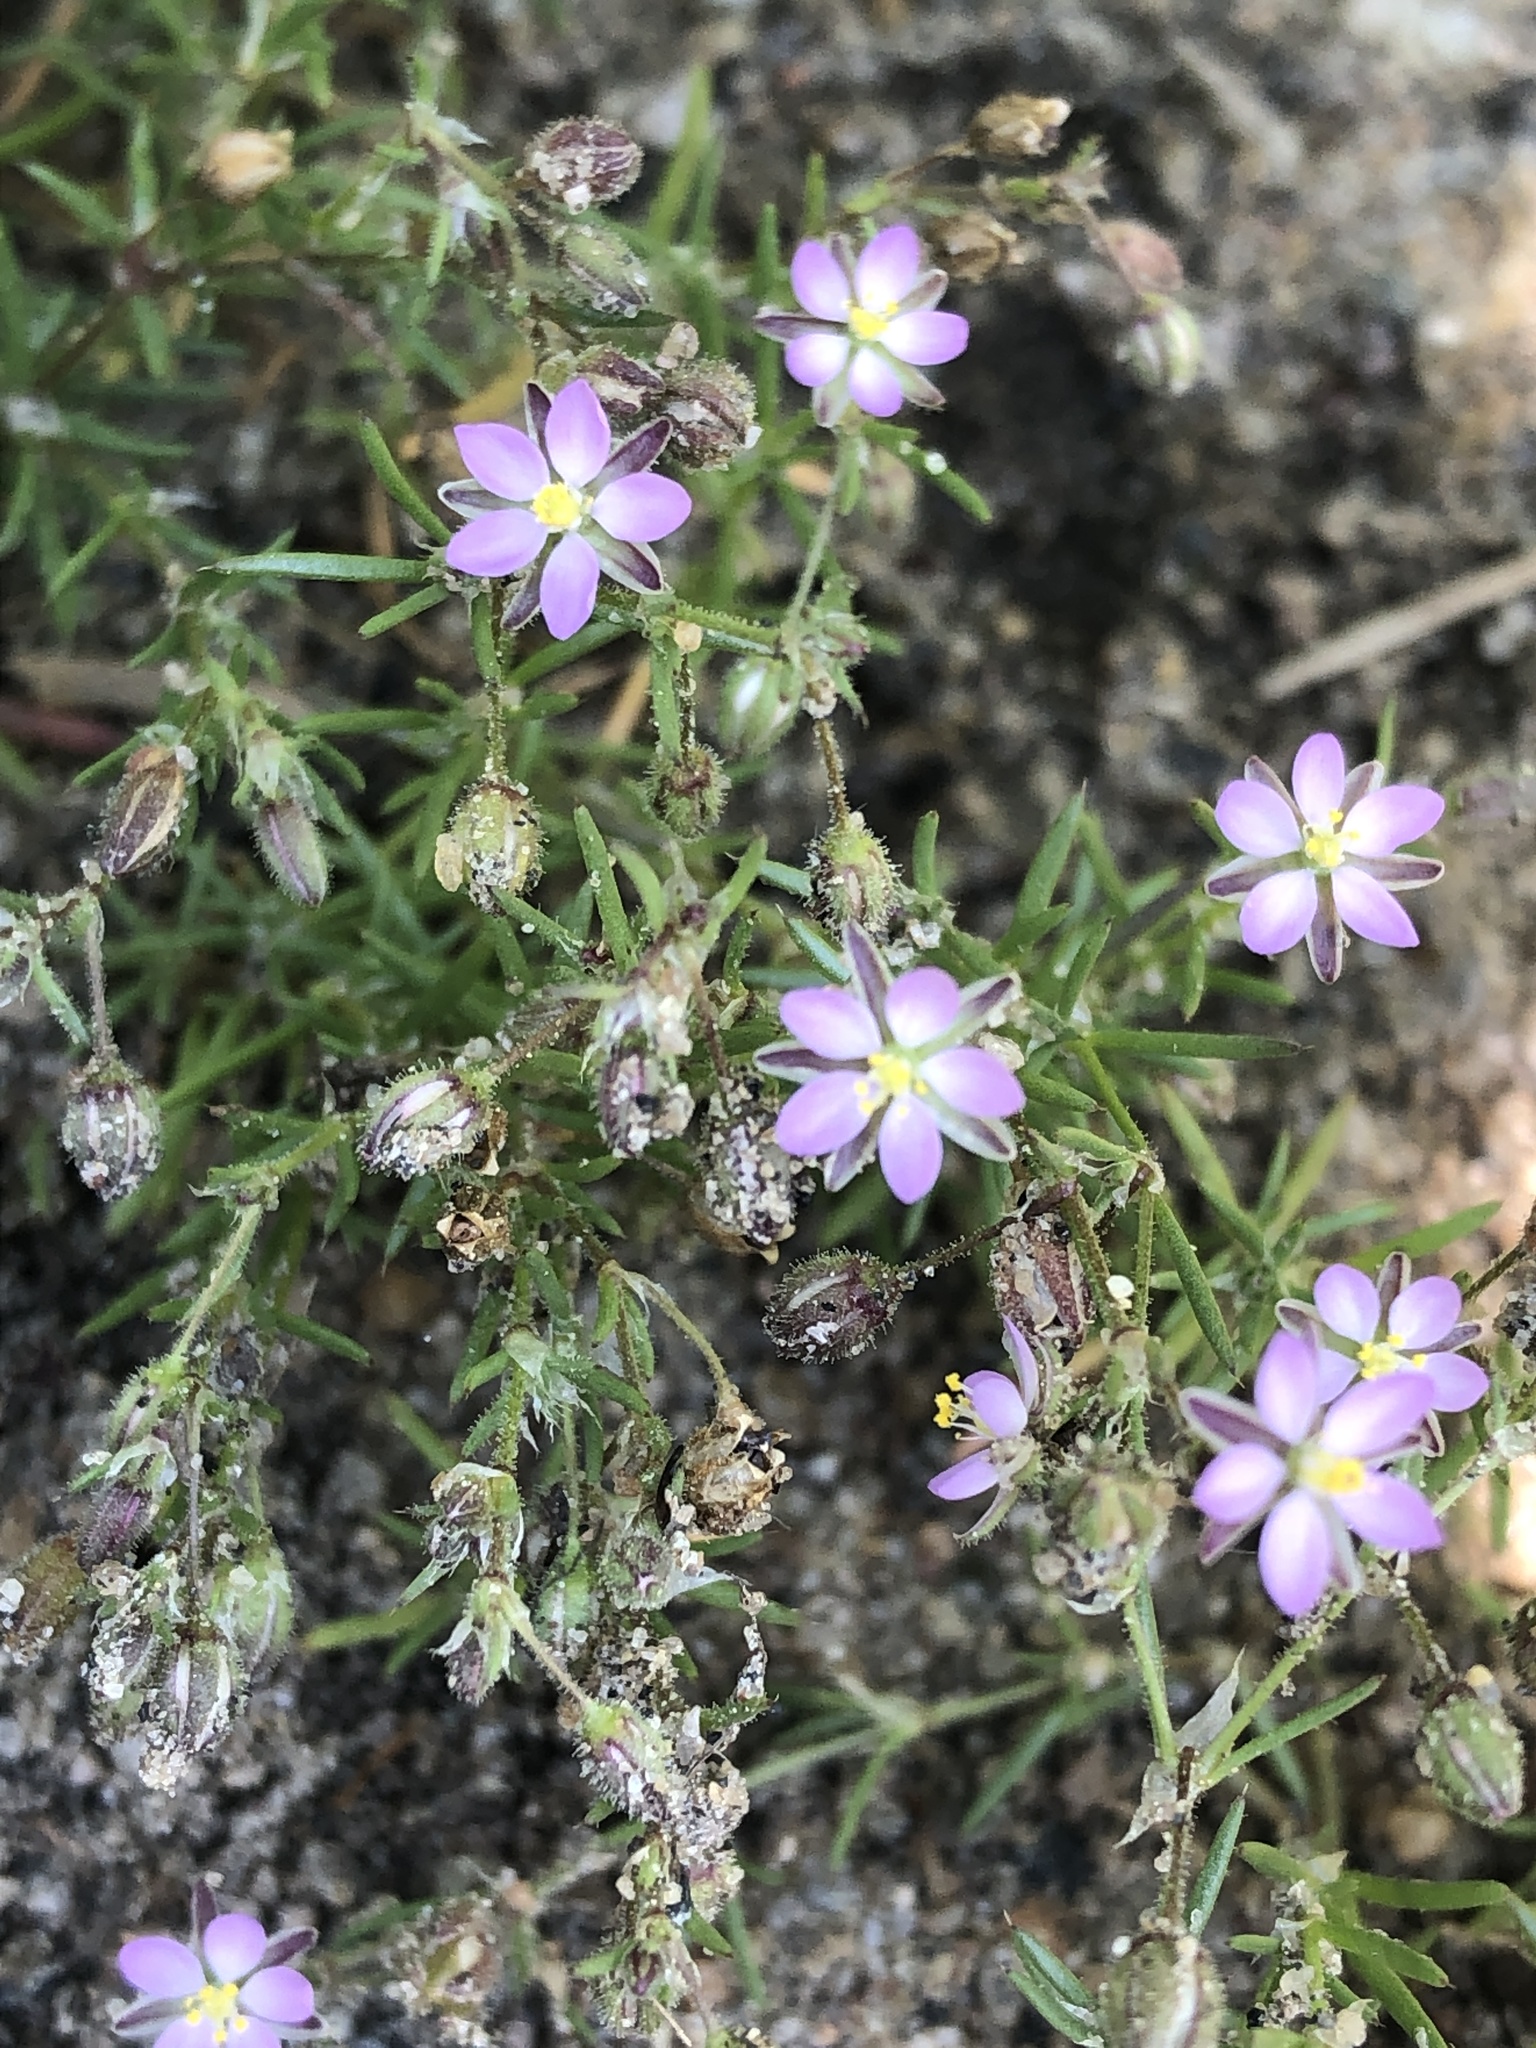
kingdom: Plantae
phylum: Tracheophyta
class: Magnoliopsida
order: Caryophyllales
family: Caryophyllaceae
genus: Spergularia
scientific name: Spergularia rubra
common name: Red sand-spurrey
